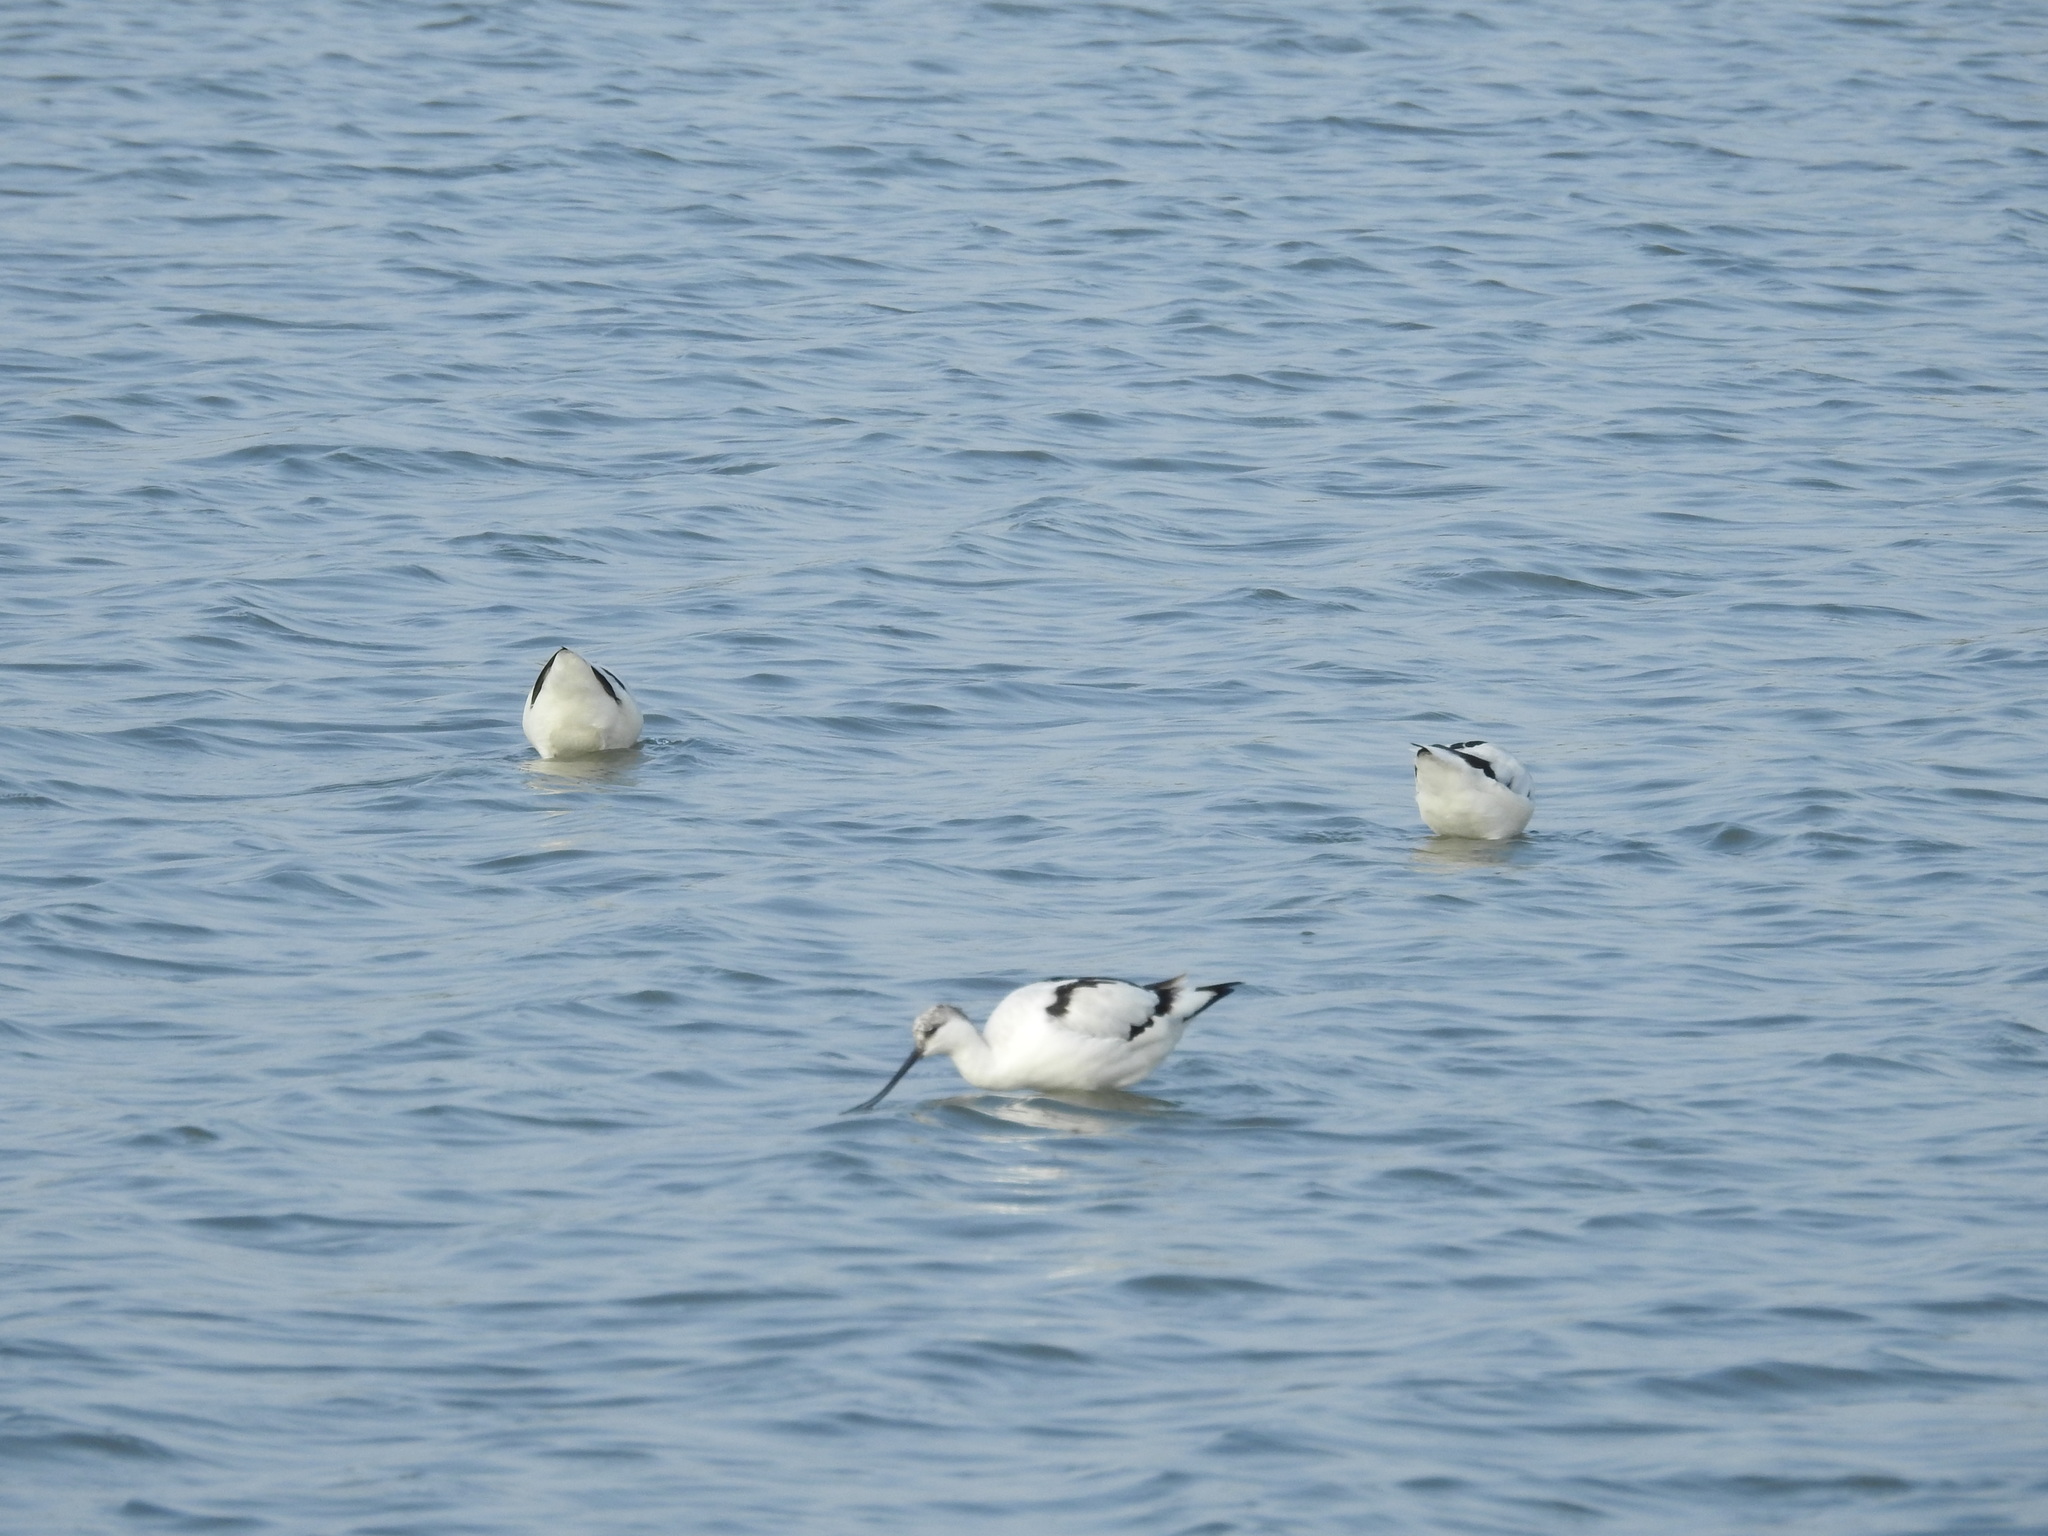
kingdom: Animalia
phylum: Chordata
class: Aves
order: Charadriiformes
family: Recurvirostridae
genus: Recurvirostra
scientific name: Recurvirostra avosetta
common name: Pied avocet
